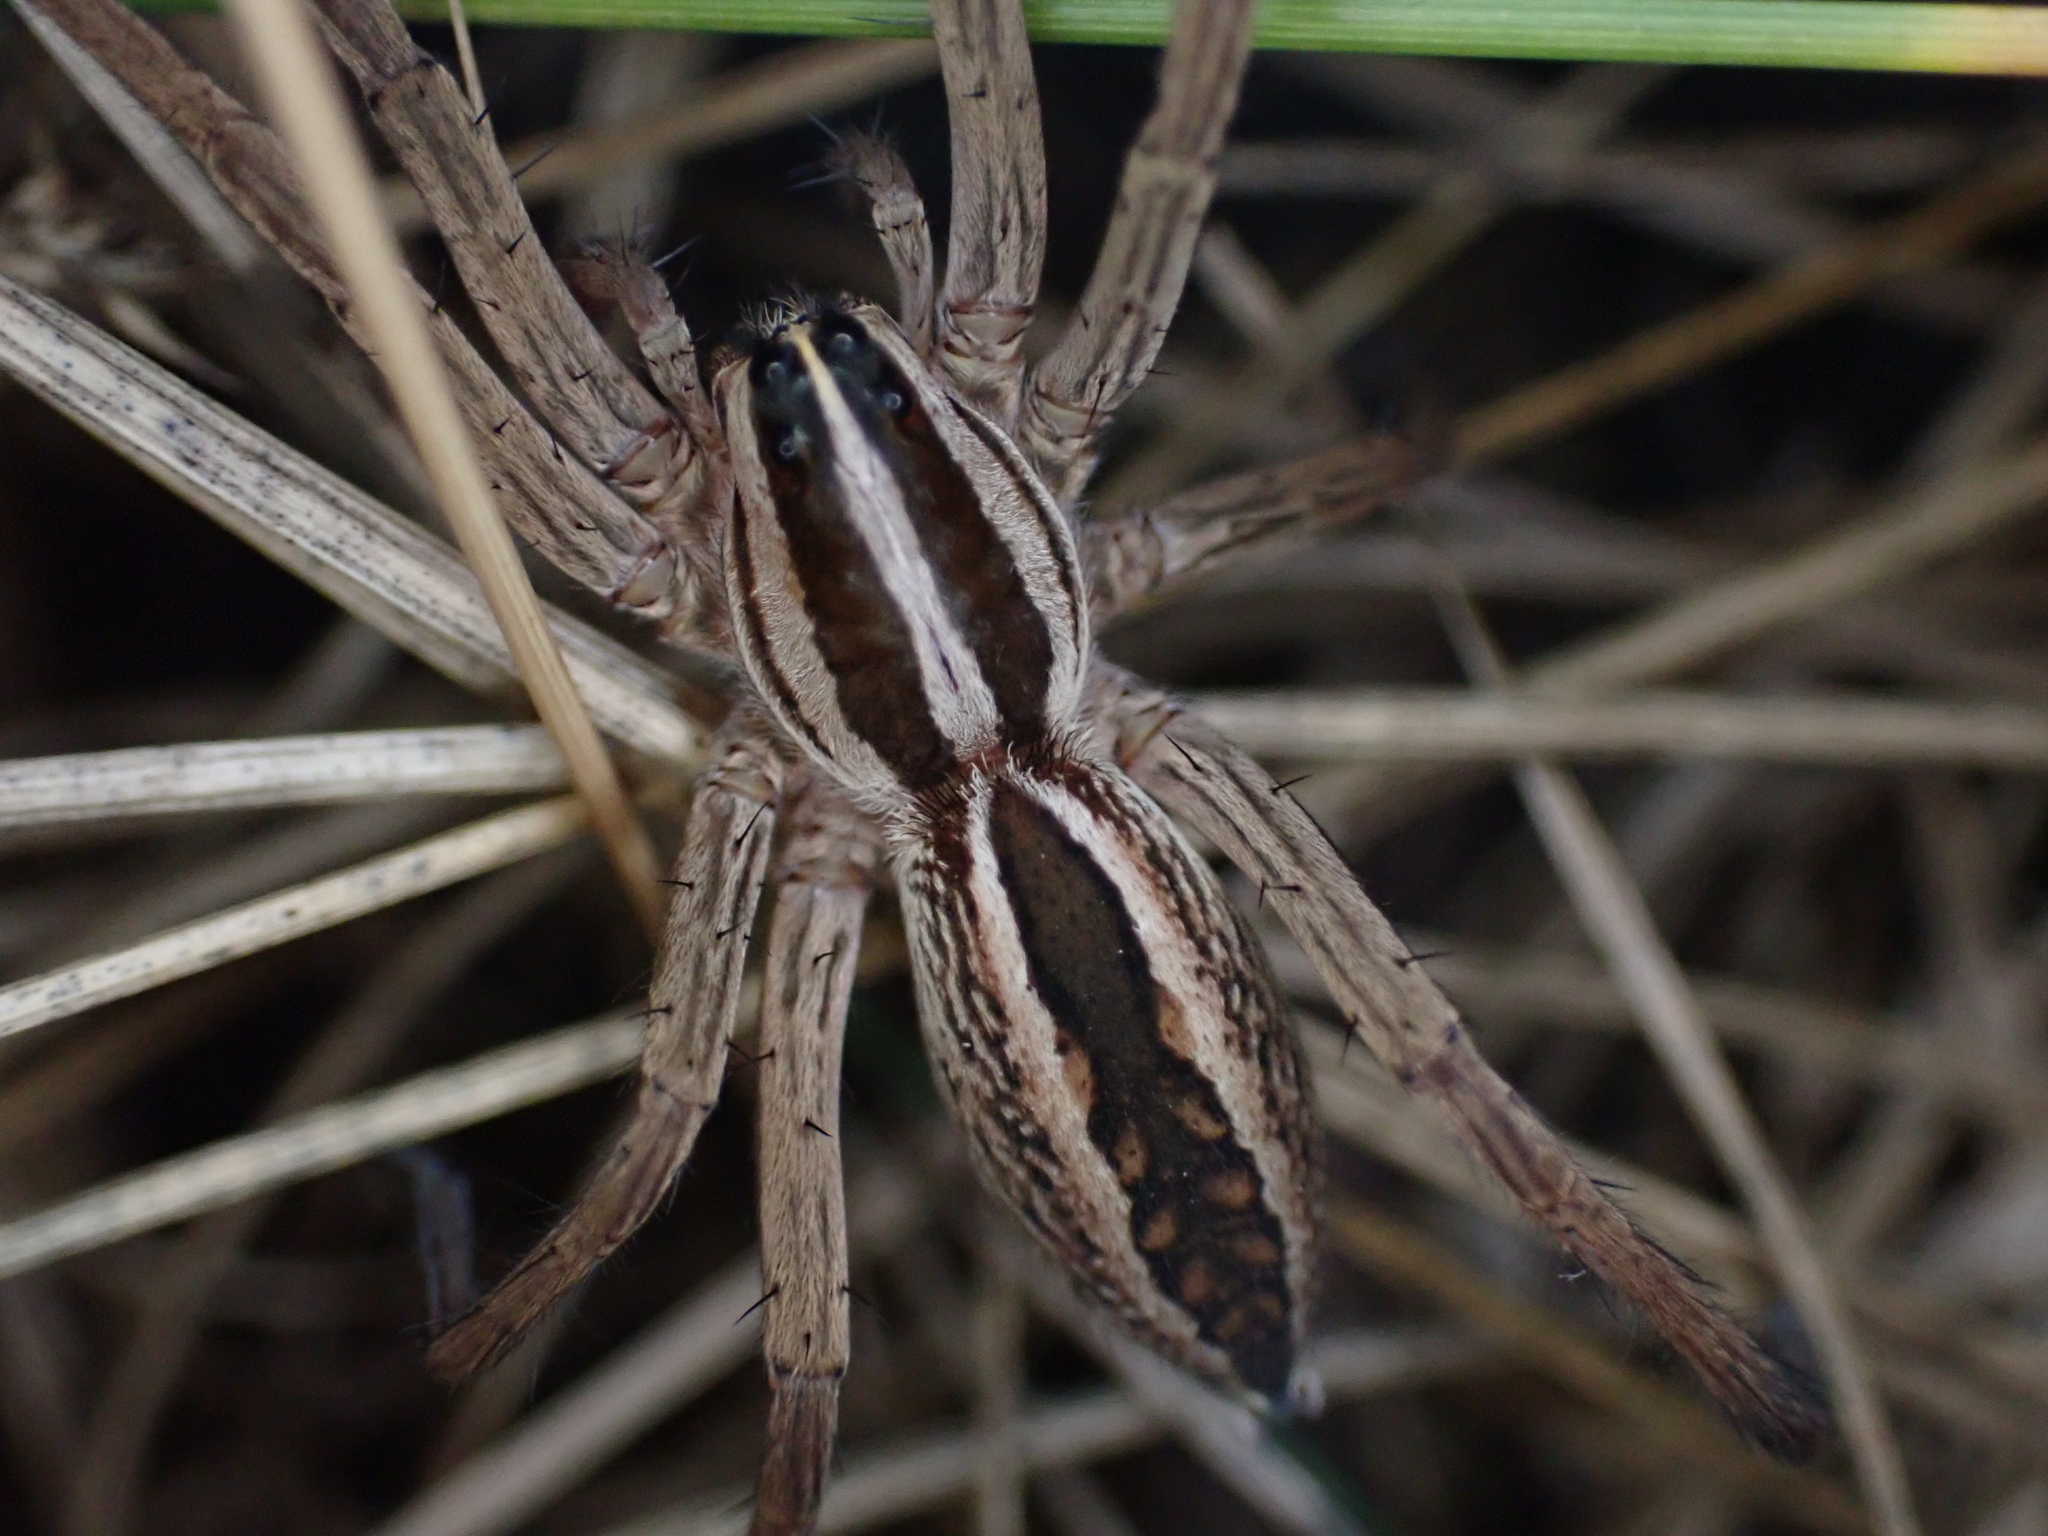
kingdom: Animalia
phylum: Arthropoda
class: Arachnida
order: Araneae
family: Lycosidae
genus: Rabidosa
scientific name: Rabidosa rabida
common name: Rabid wolf spider
